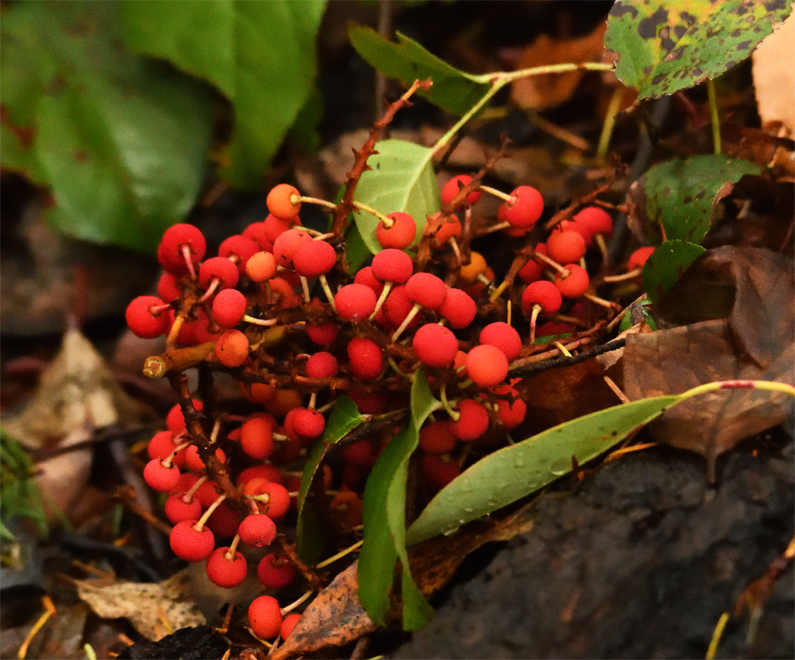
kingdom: Plantae
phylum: Tracheophyta
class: Magnoliopsida
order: Ericales
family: Ericaceae
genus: Arbutus
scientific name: Arbutus menziesii
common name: Pacific madrone
